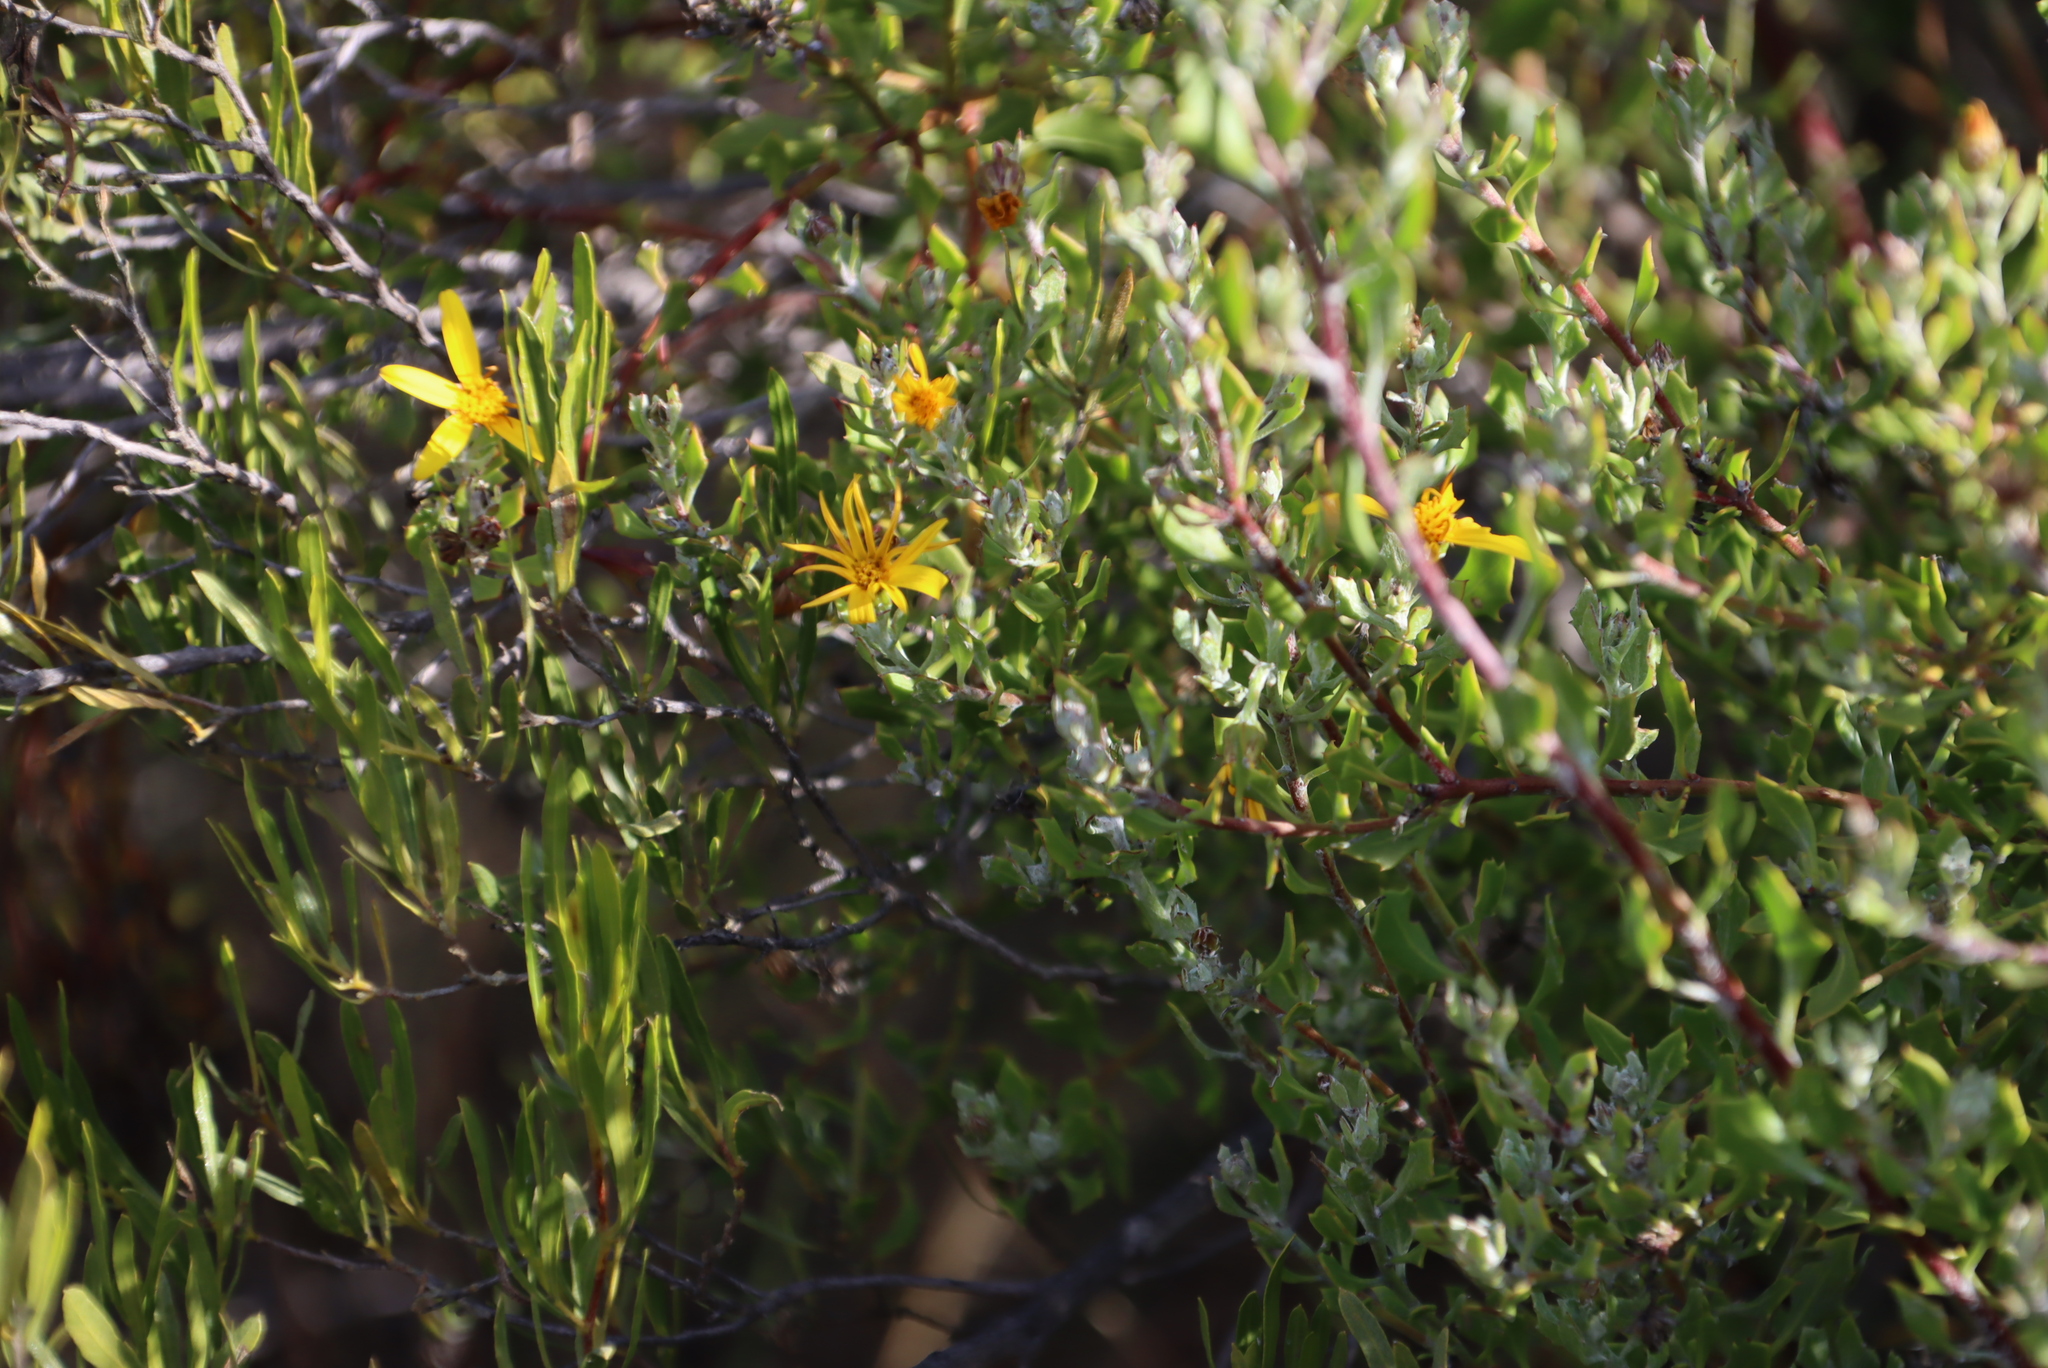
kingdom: Plantae
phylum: Tracheophyta
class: Magnoliopsida
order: Asterales
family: Asteraceae
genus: Osteospermum
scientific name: Osteospermum moniliferum
